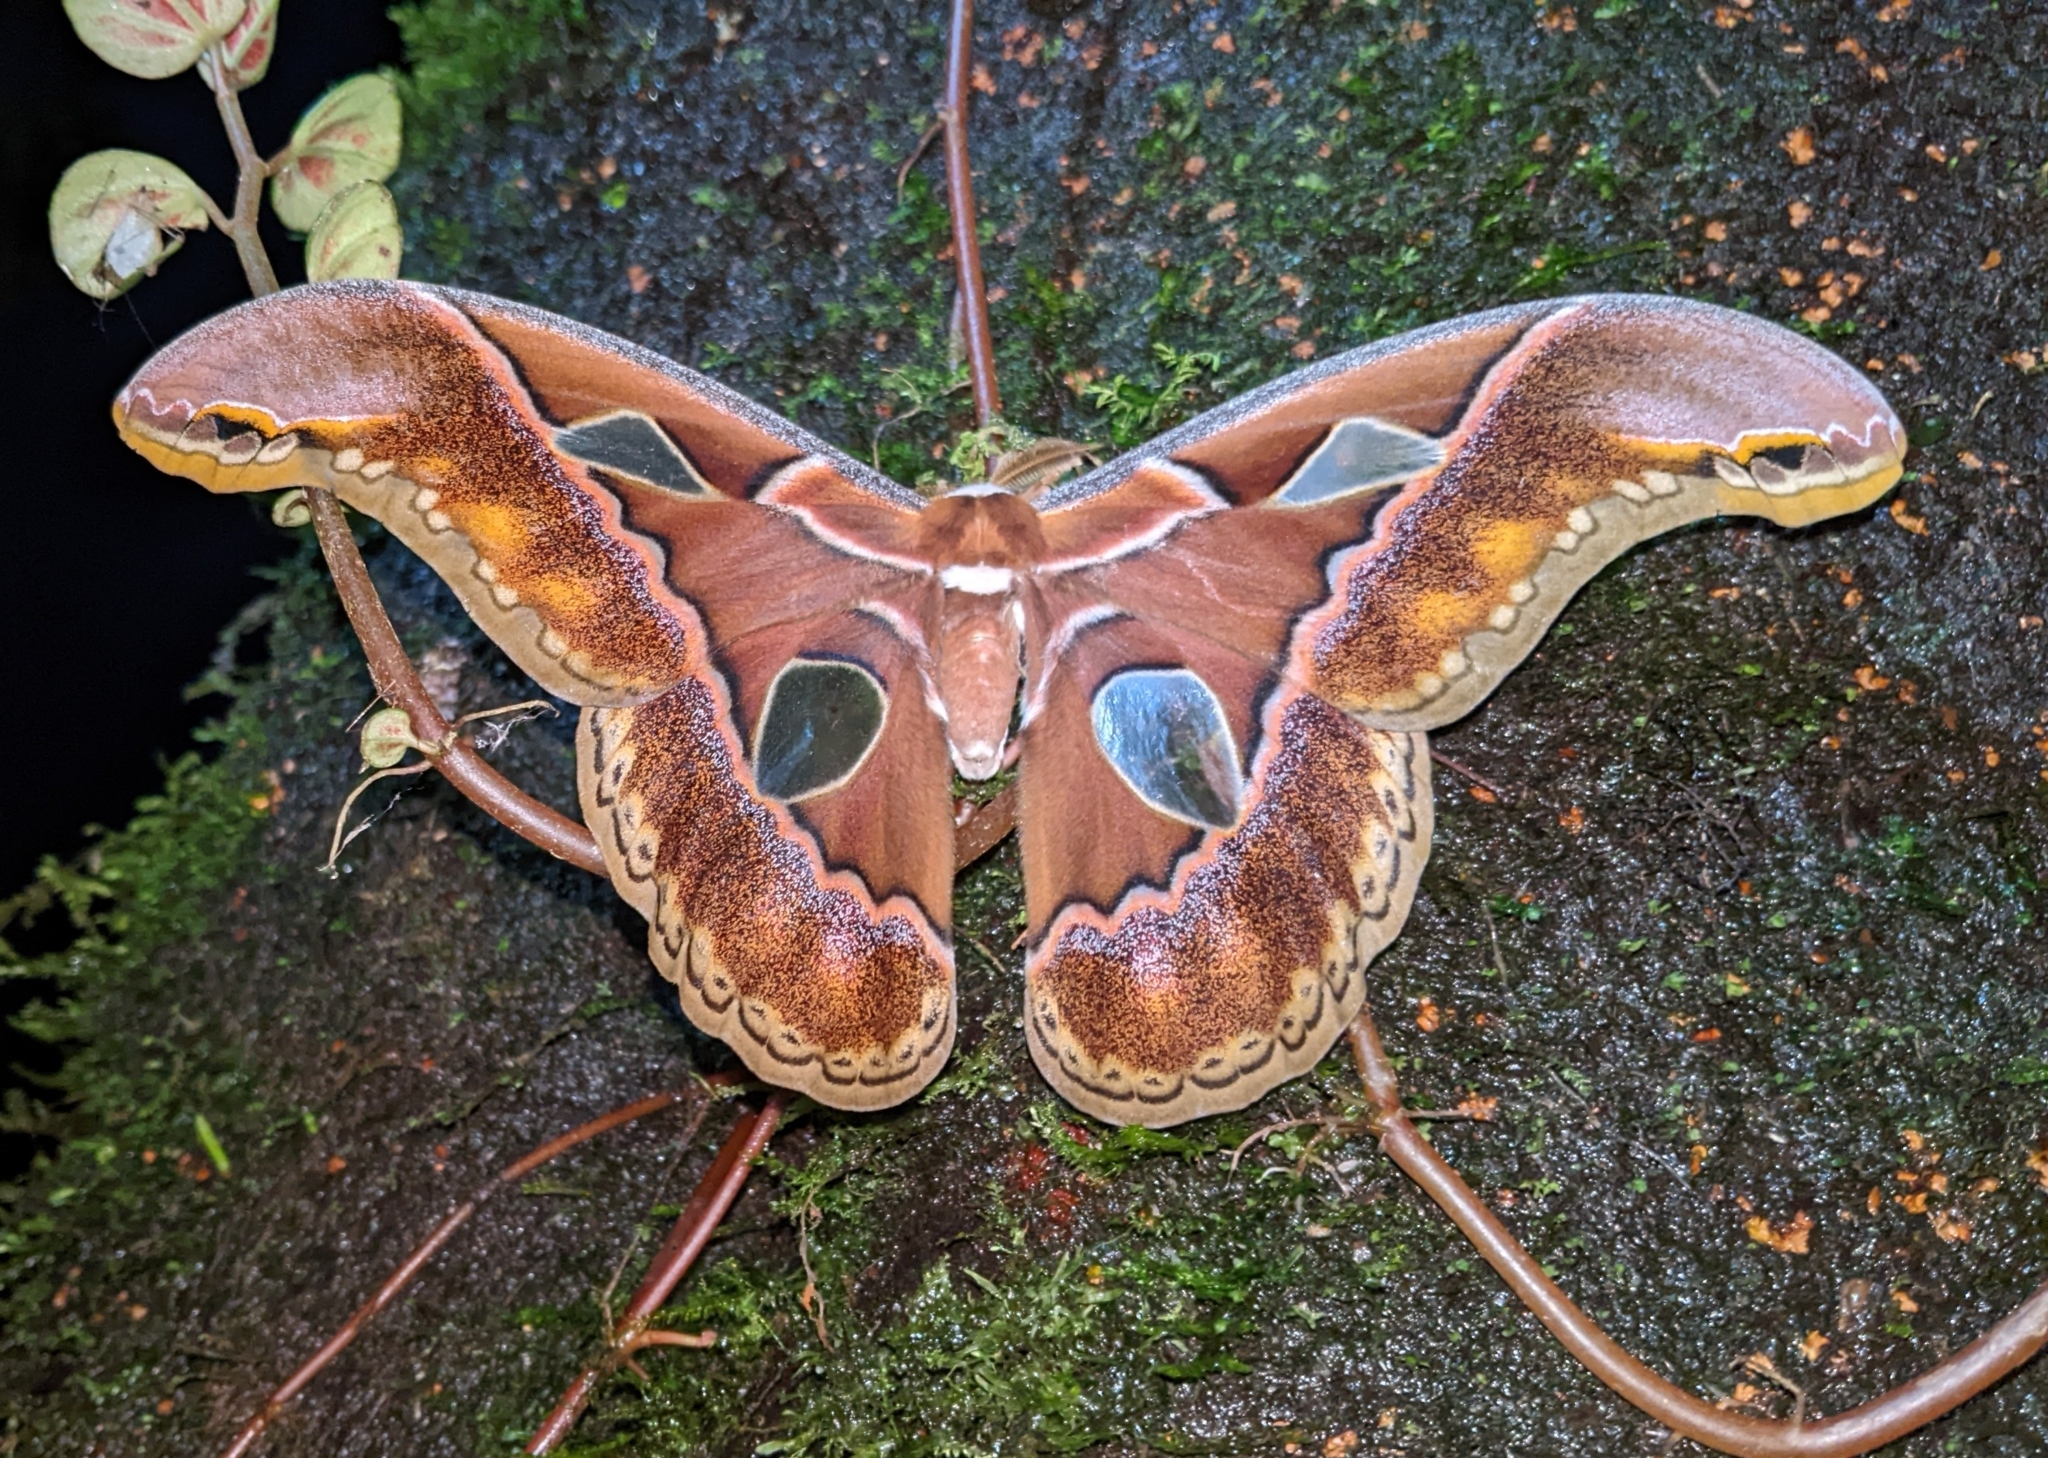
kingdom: Animalia
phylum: Arthropoda
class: Insecta
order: Lepidoptera
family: Saturniidae
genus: Rothschildia
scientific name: Rothschildia orizaba
